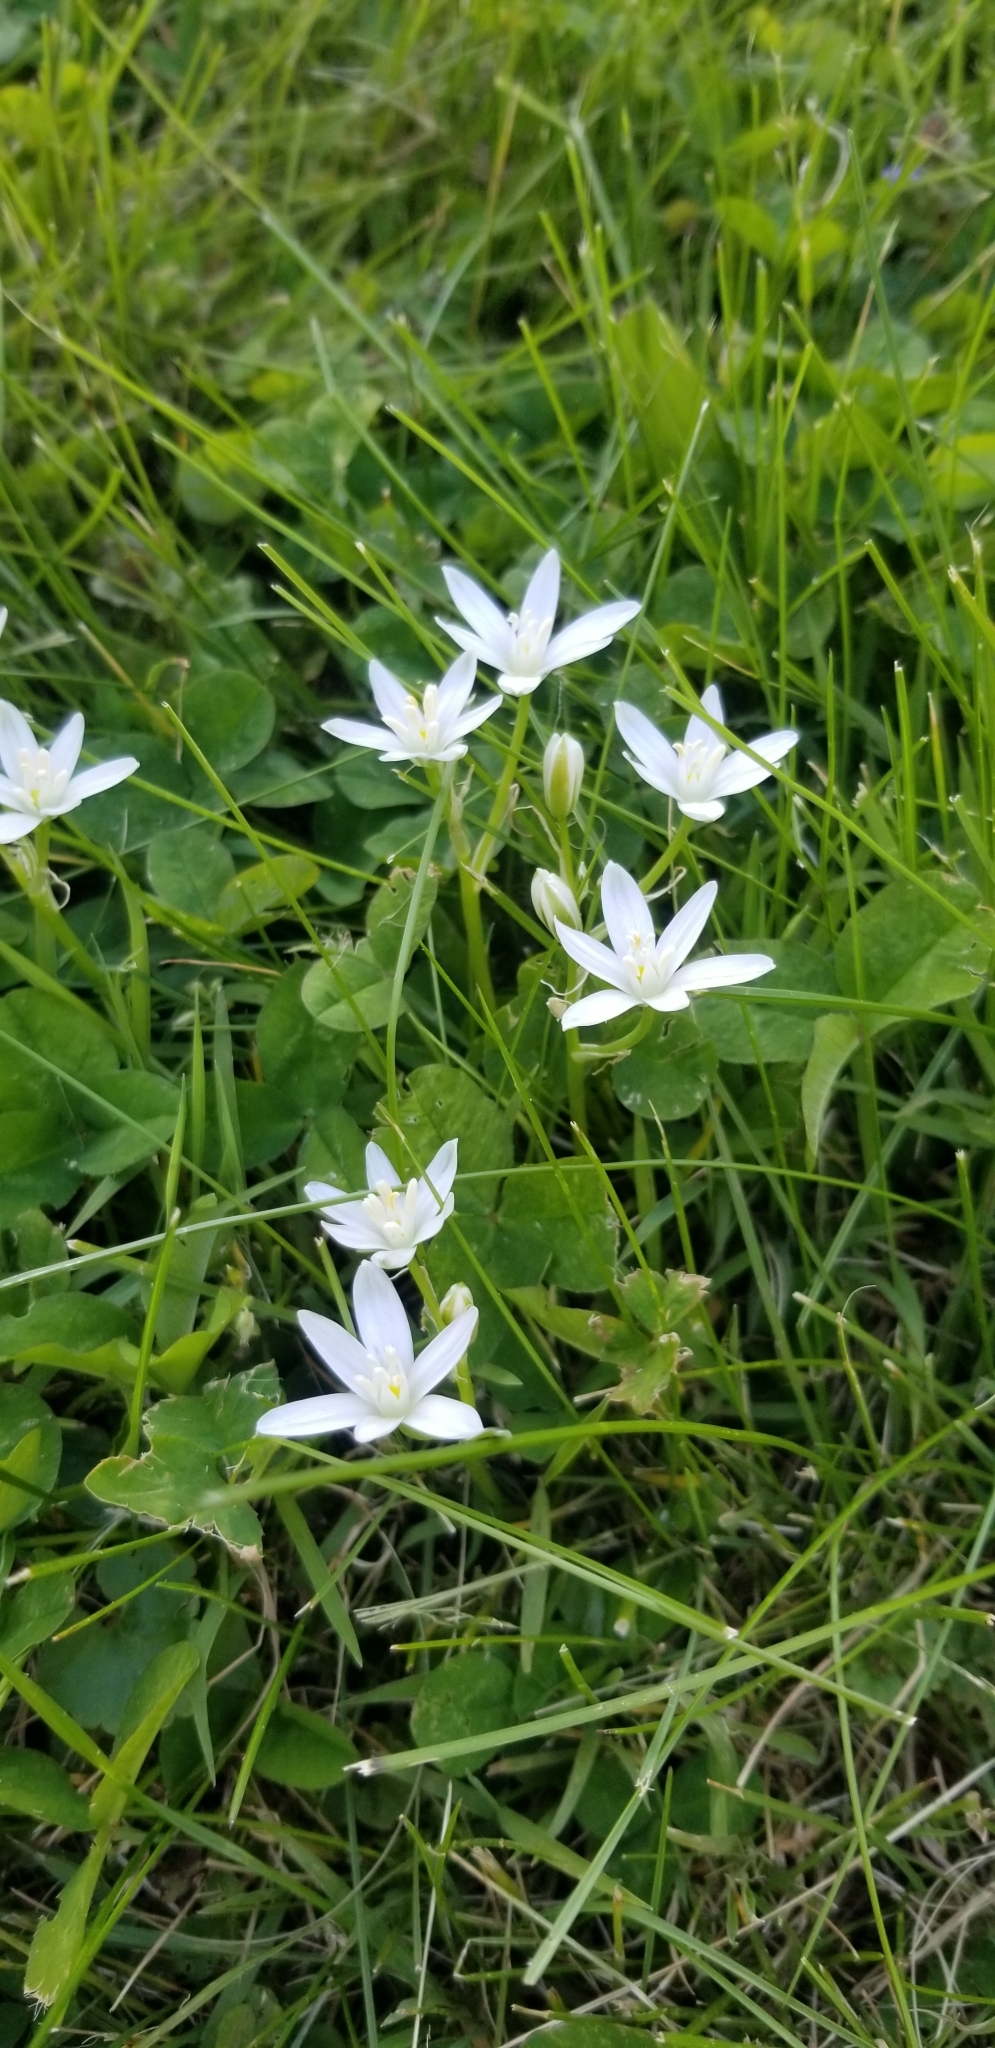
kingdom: Plantae
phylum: Tracheophyta
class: Liliopsida
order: Asparagales
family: Asparagaceae
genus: Ornithogalum
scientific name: Ornithogalum umbellatum
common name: Garden star-of-bethlehem
